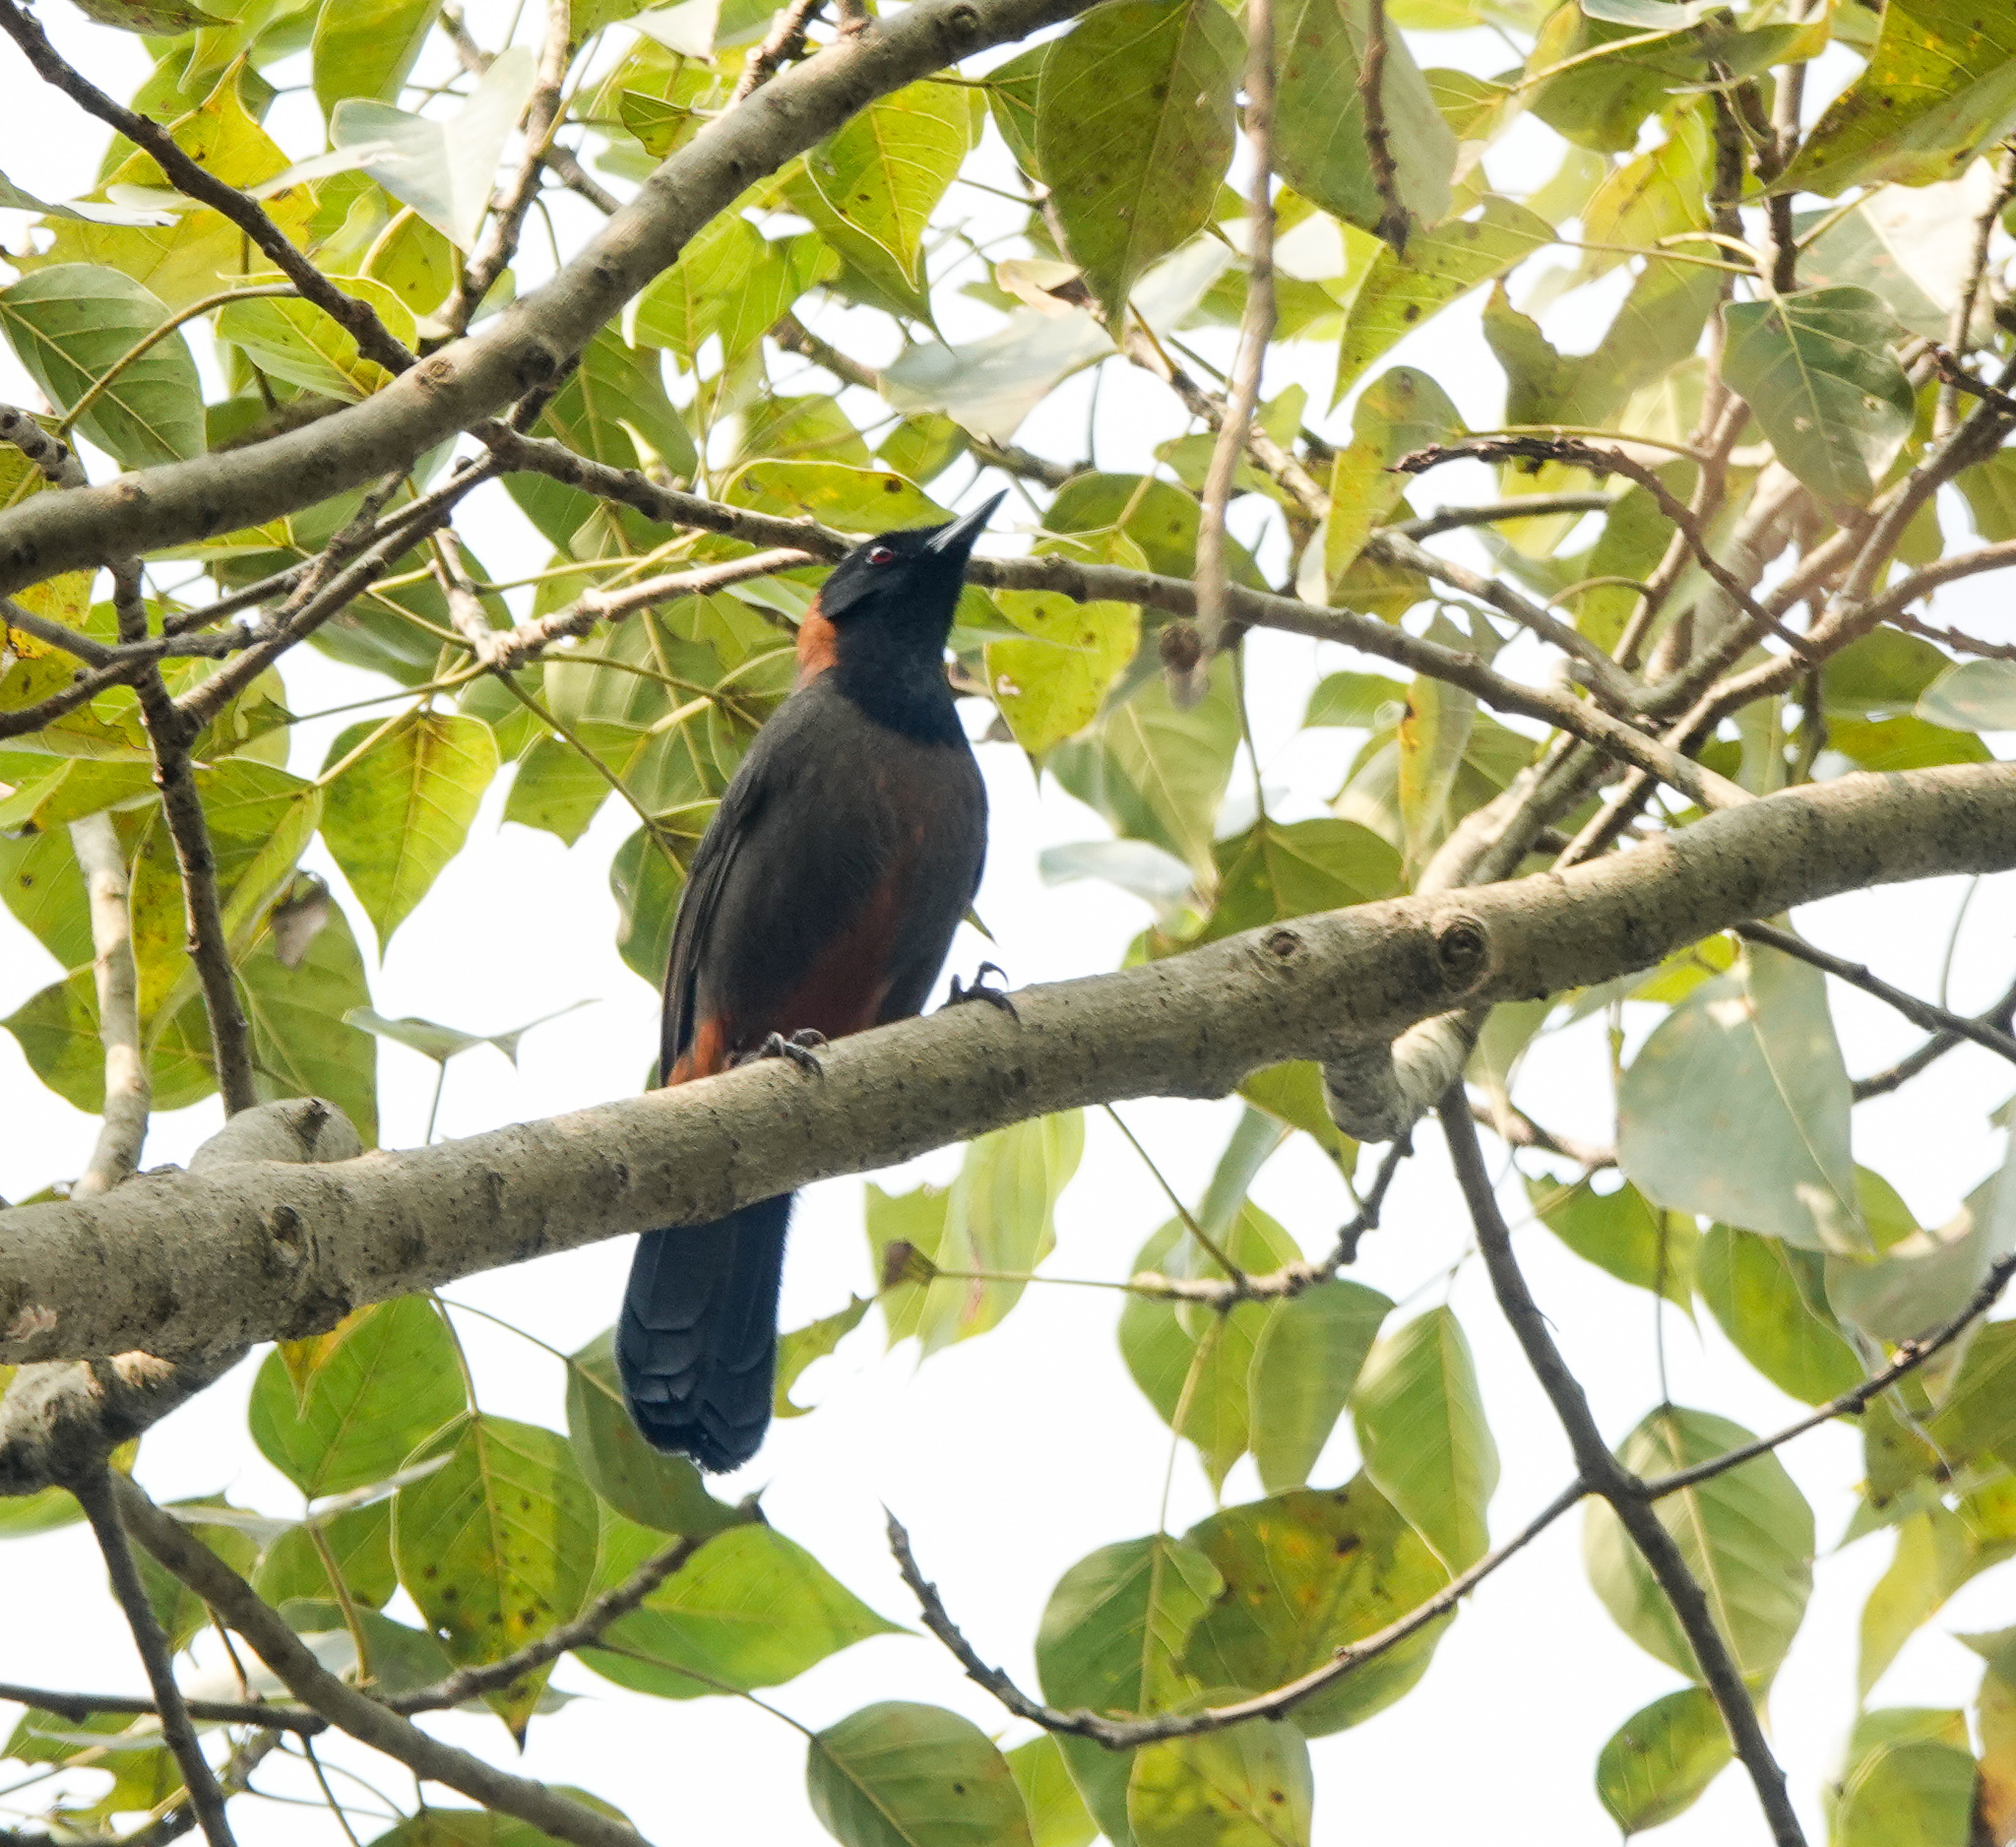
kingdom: Animalia
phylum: Chordata
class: Aves
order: Passeriformes
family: Leiothrichidae
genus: Garrulax
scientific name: Garrulax ruficollis
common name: Rufous-necked laughingthrush
